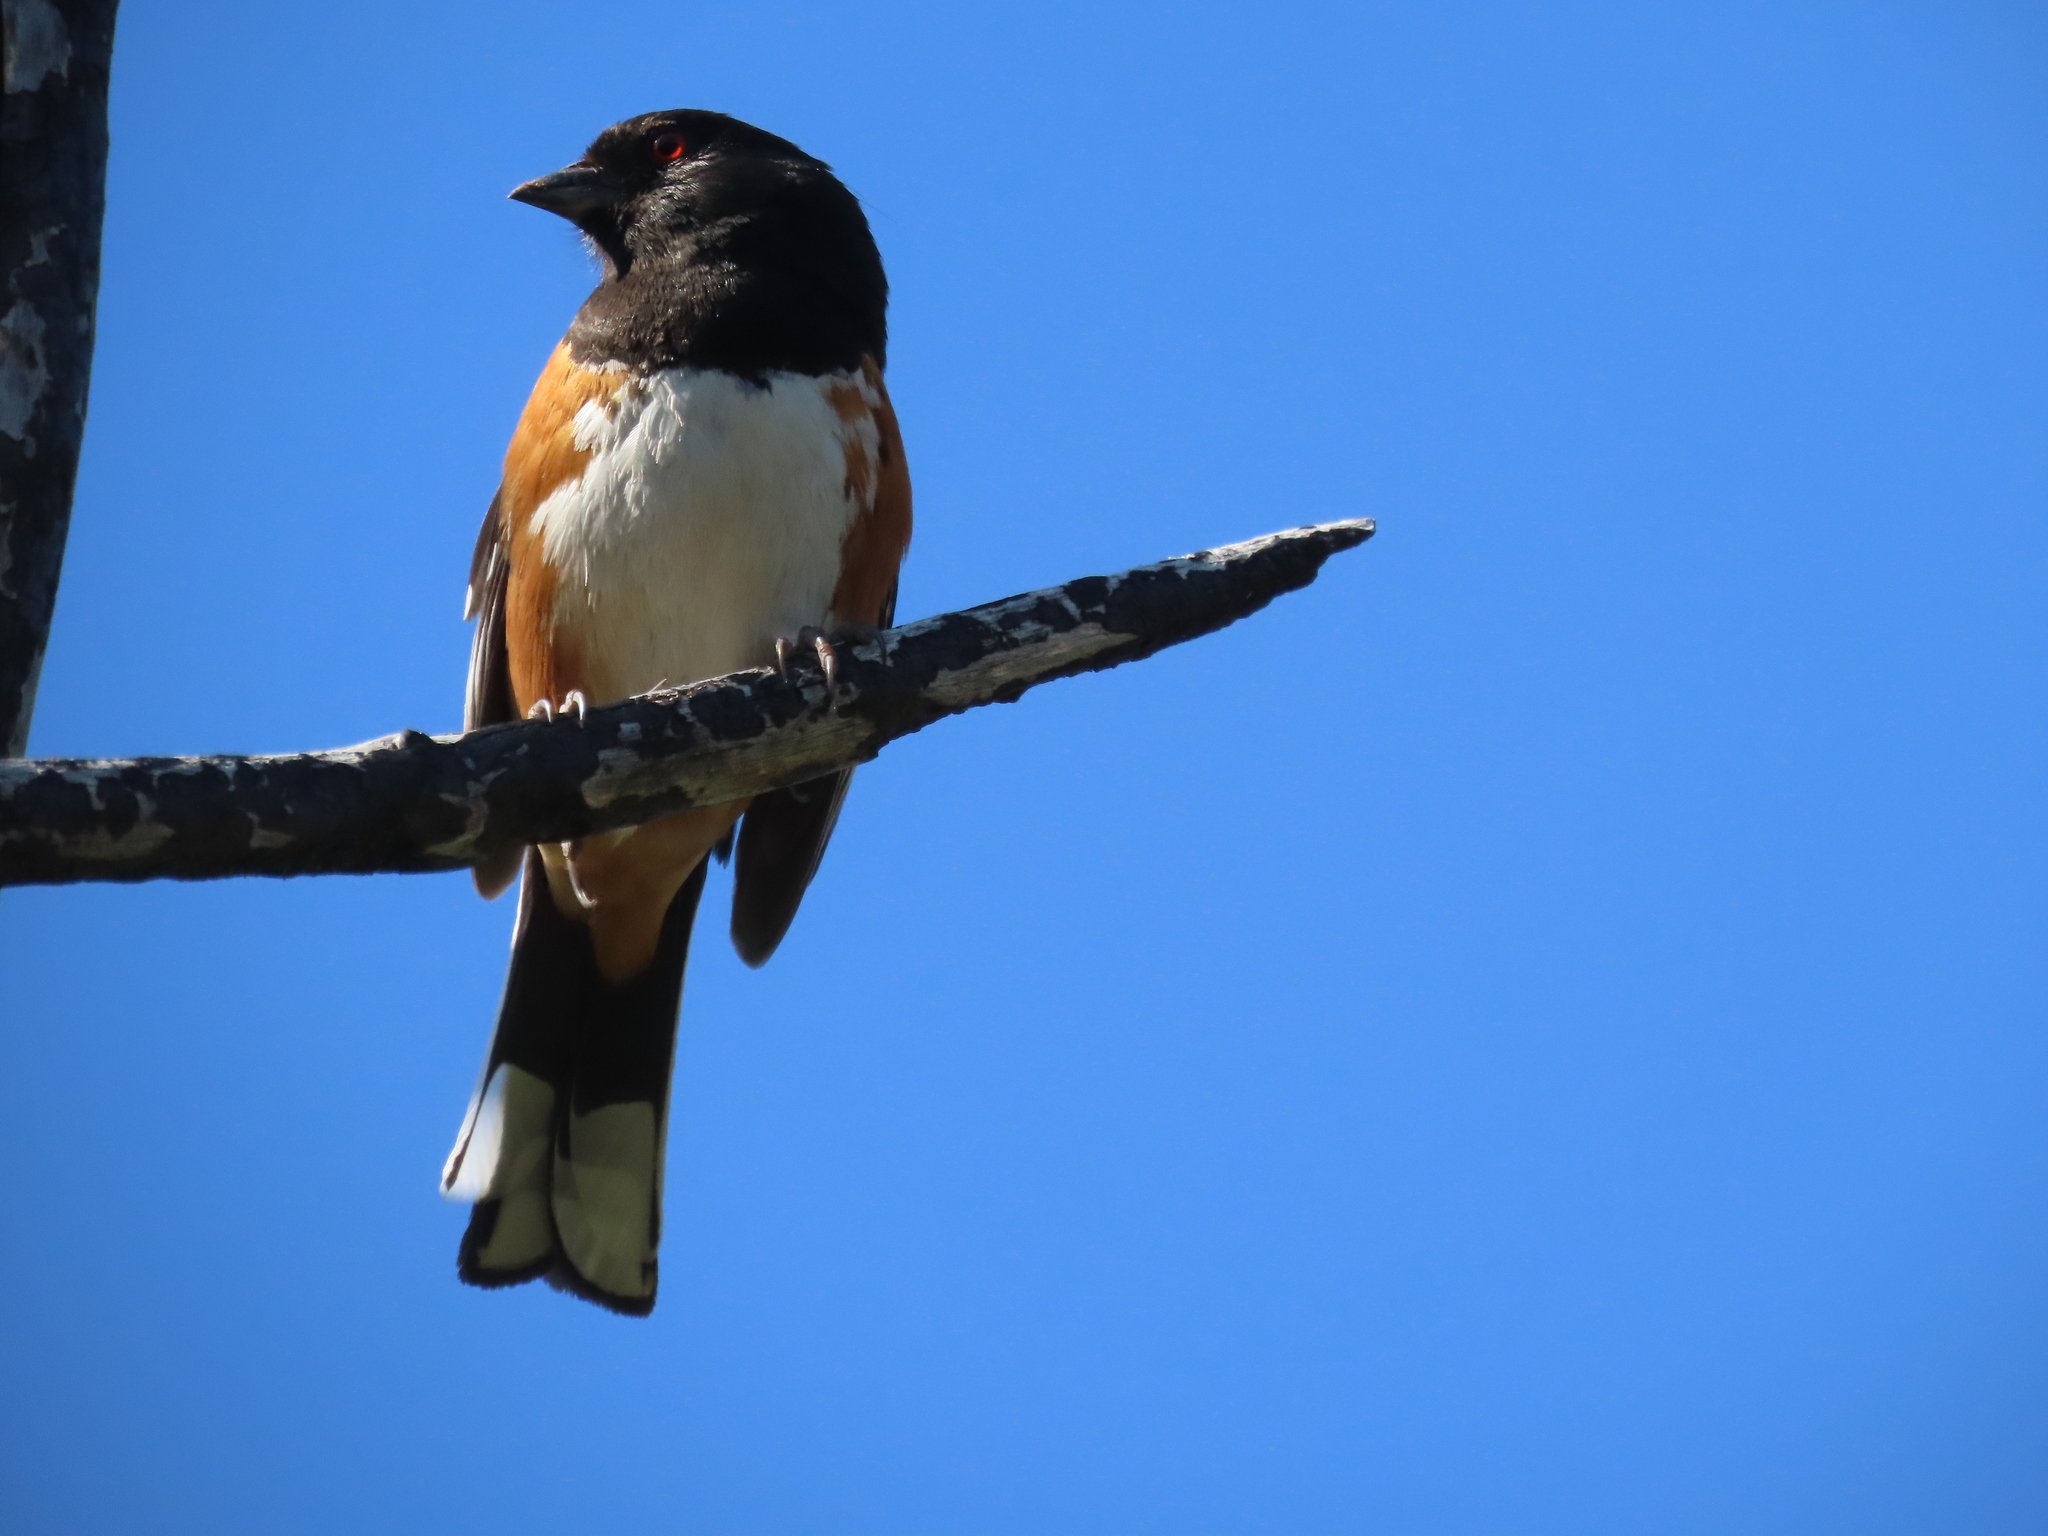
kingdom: Animalia
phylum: Chordata
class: Aves
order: Passeriformes
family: Passerellidae
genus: Pipilo
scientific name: Pipilo maculatus
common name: Spotted towhee
